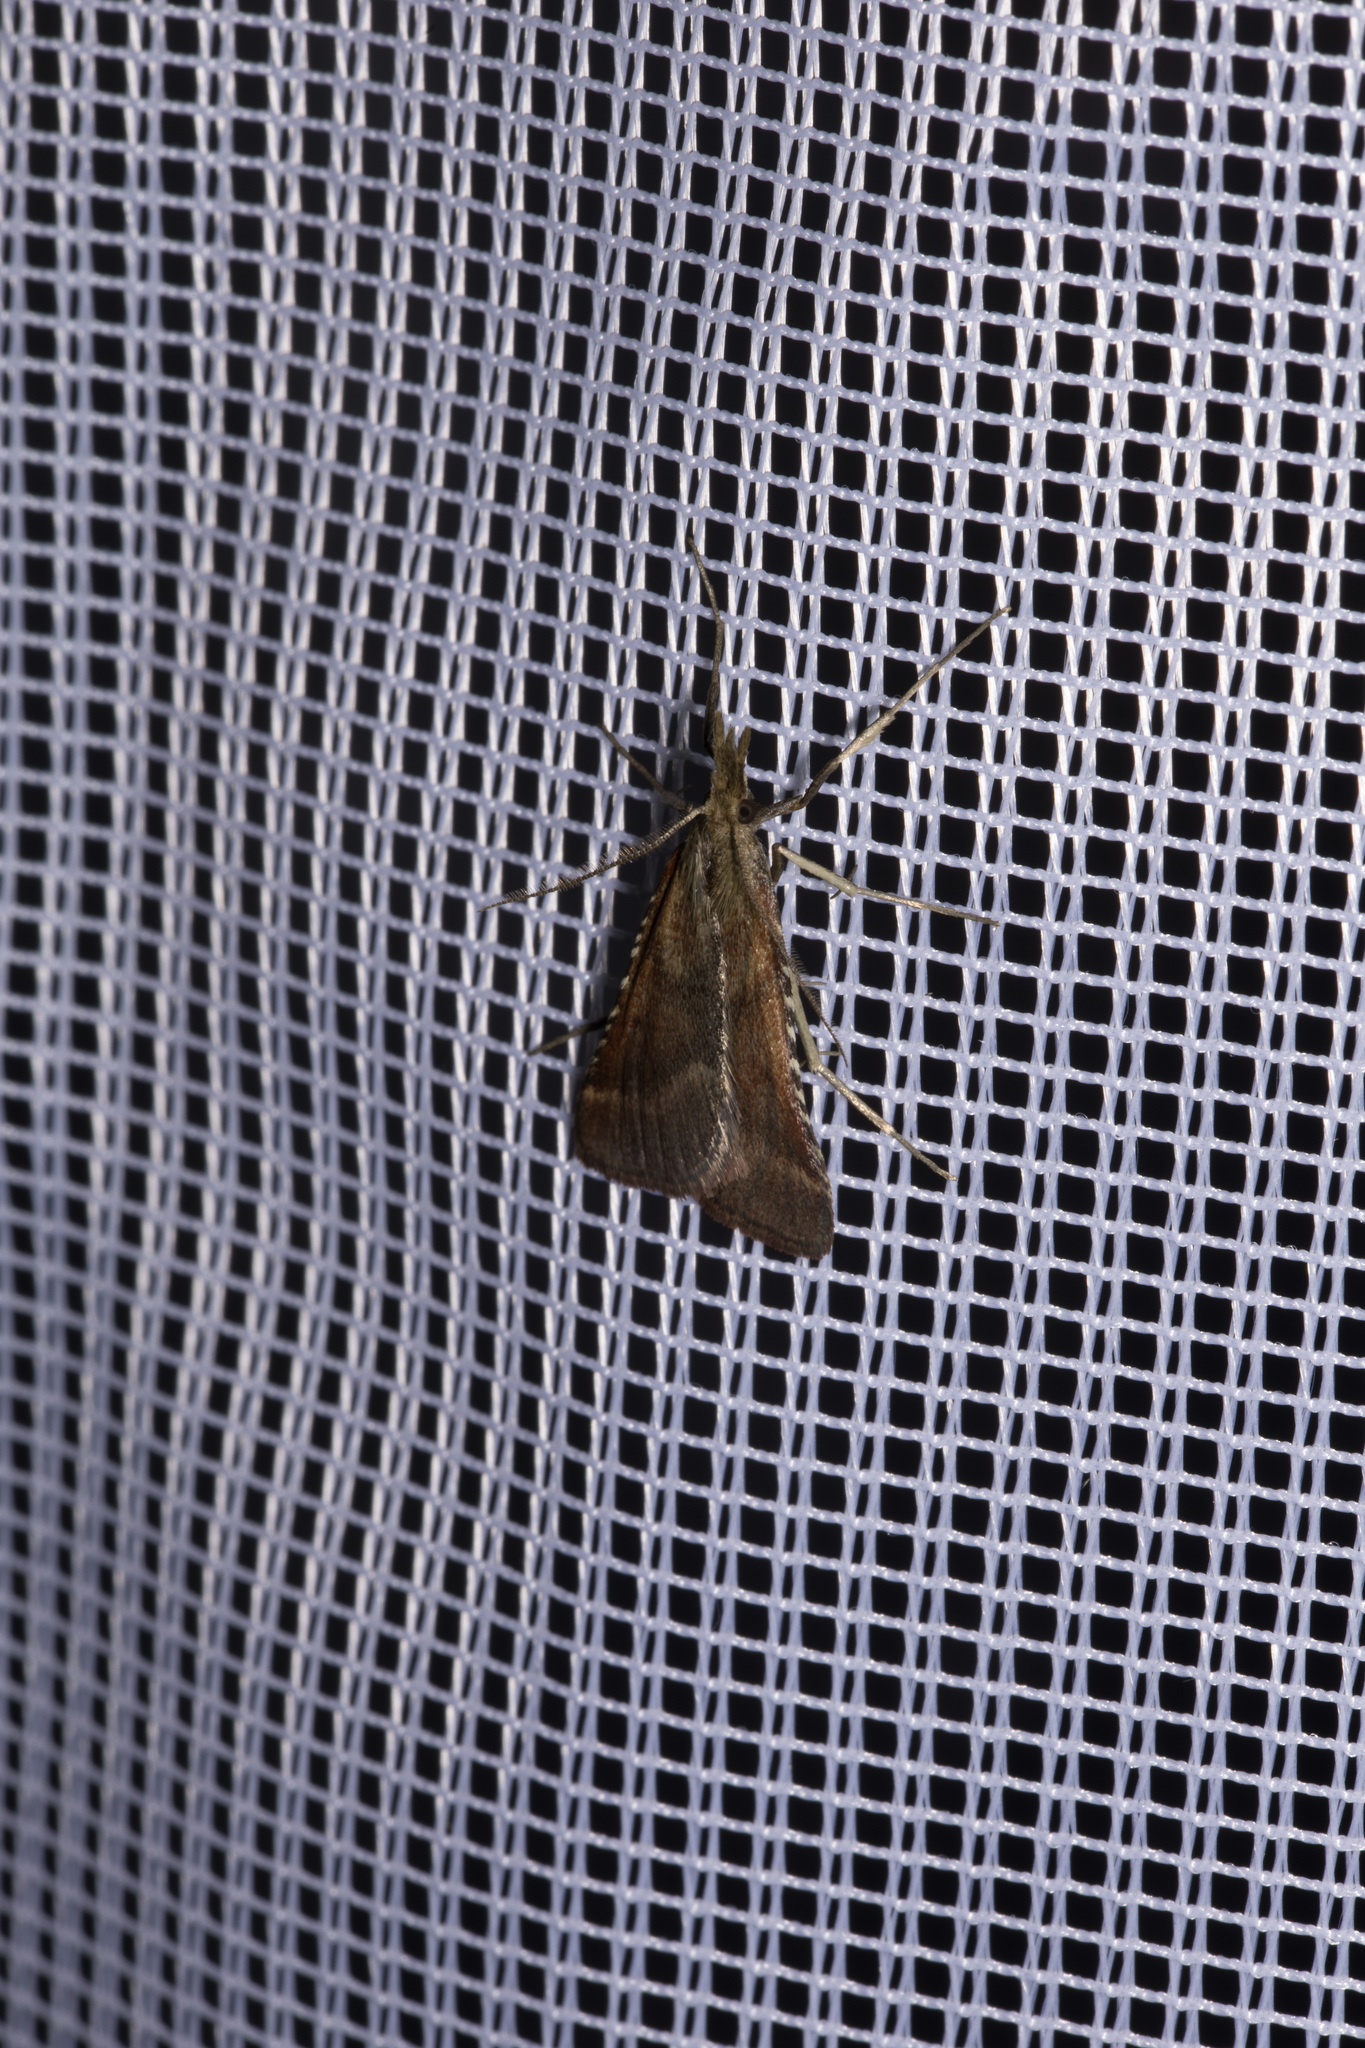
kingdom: Animalia
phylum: Arthropoda
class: Insecta
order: Lepidoptera
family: Pyralidae
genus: Synaphe
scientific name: Synaphe punctalis
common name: Long-legged tabby
